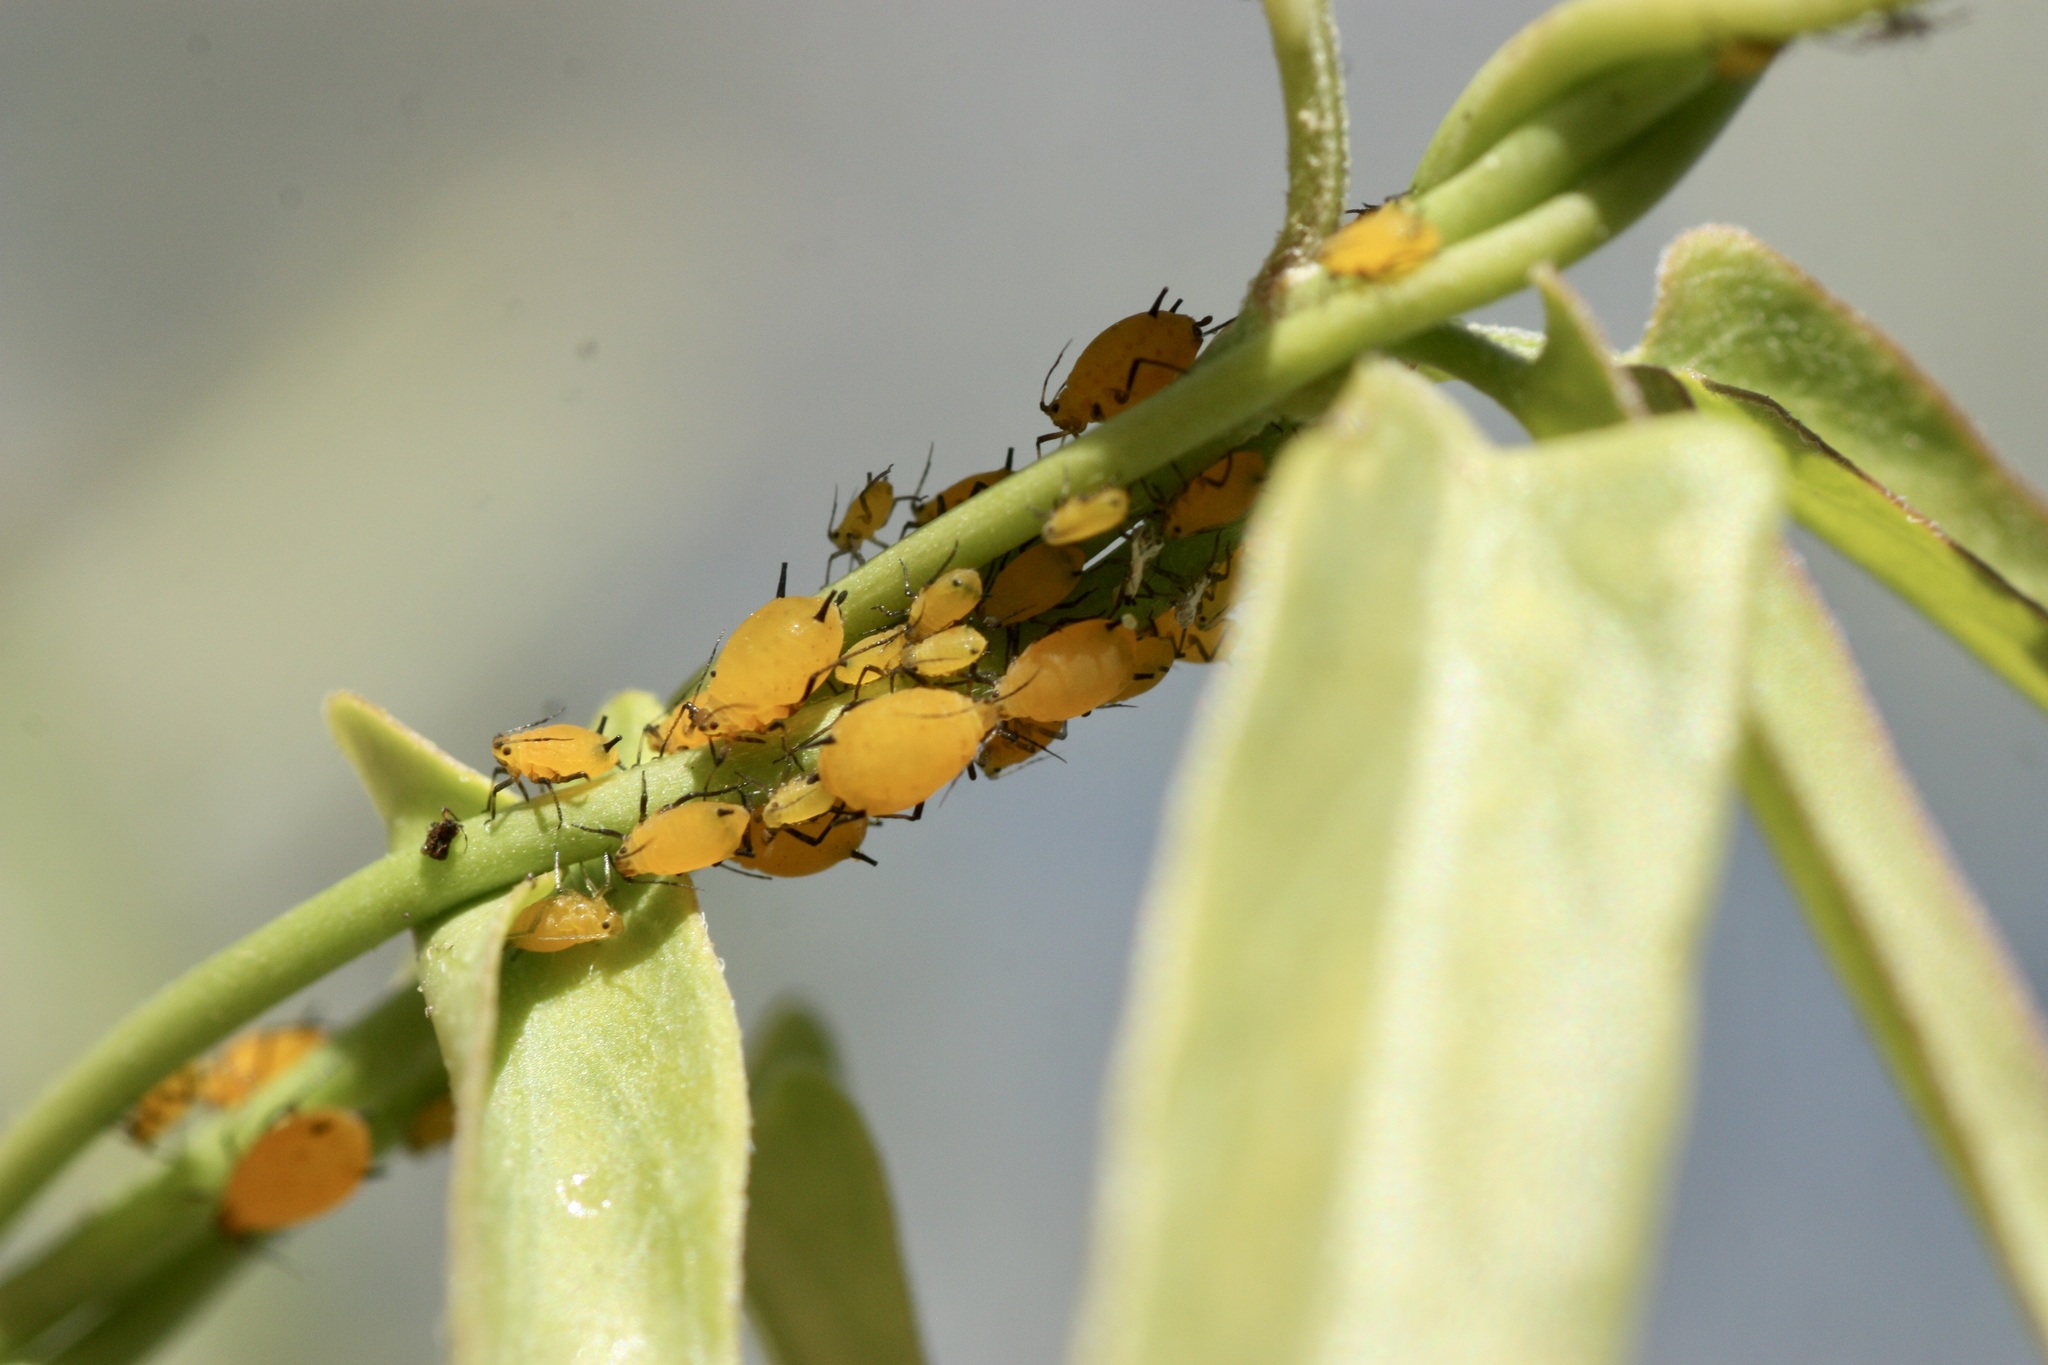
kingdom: Animalia
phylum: Arthropoda
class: Insecta
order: Hemiptera
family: Aphididae
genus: Aphis
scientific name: Aphis nerii
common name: Oleander aphid
